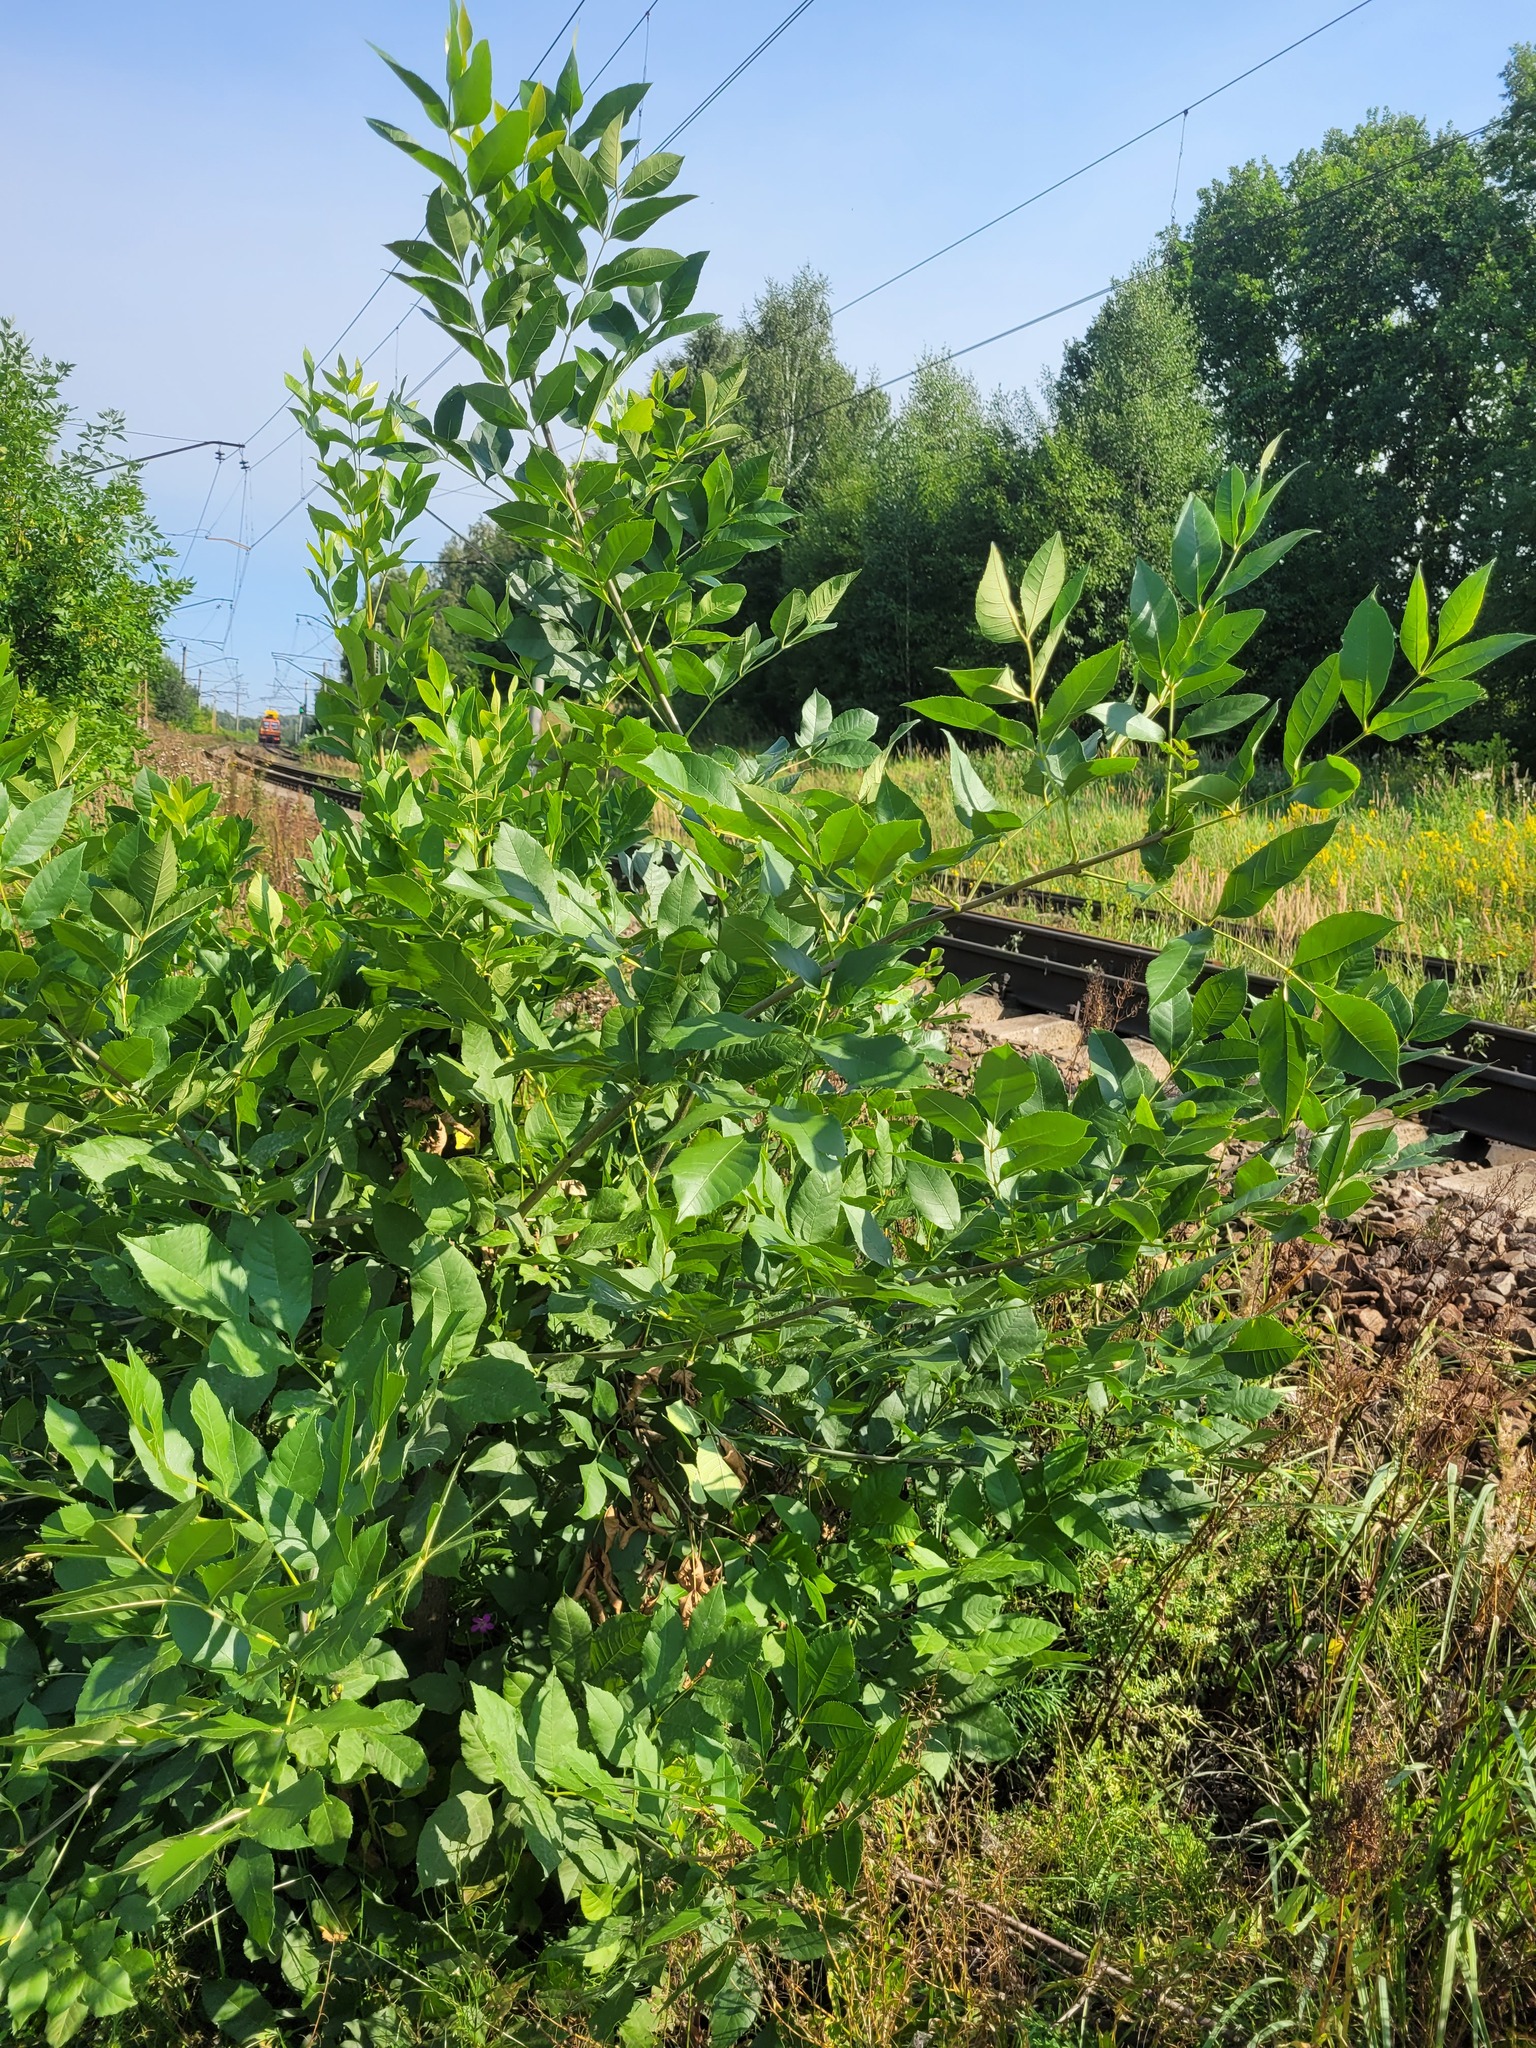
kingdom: Plantae
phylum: Tracheophyta
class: Magnoliopsida
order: Lamiales
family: Oleaceae
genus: Fraxinus
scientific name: Fraxinus pennsylvanica
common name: Green ash
